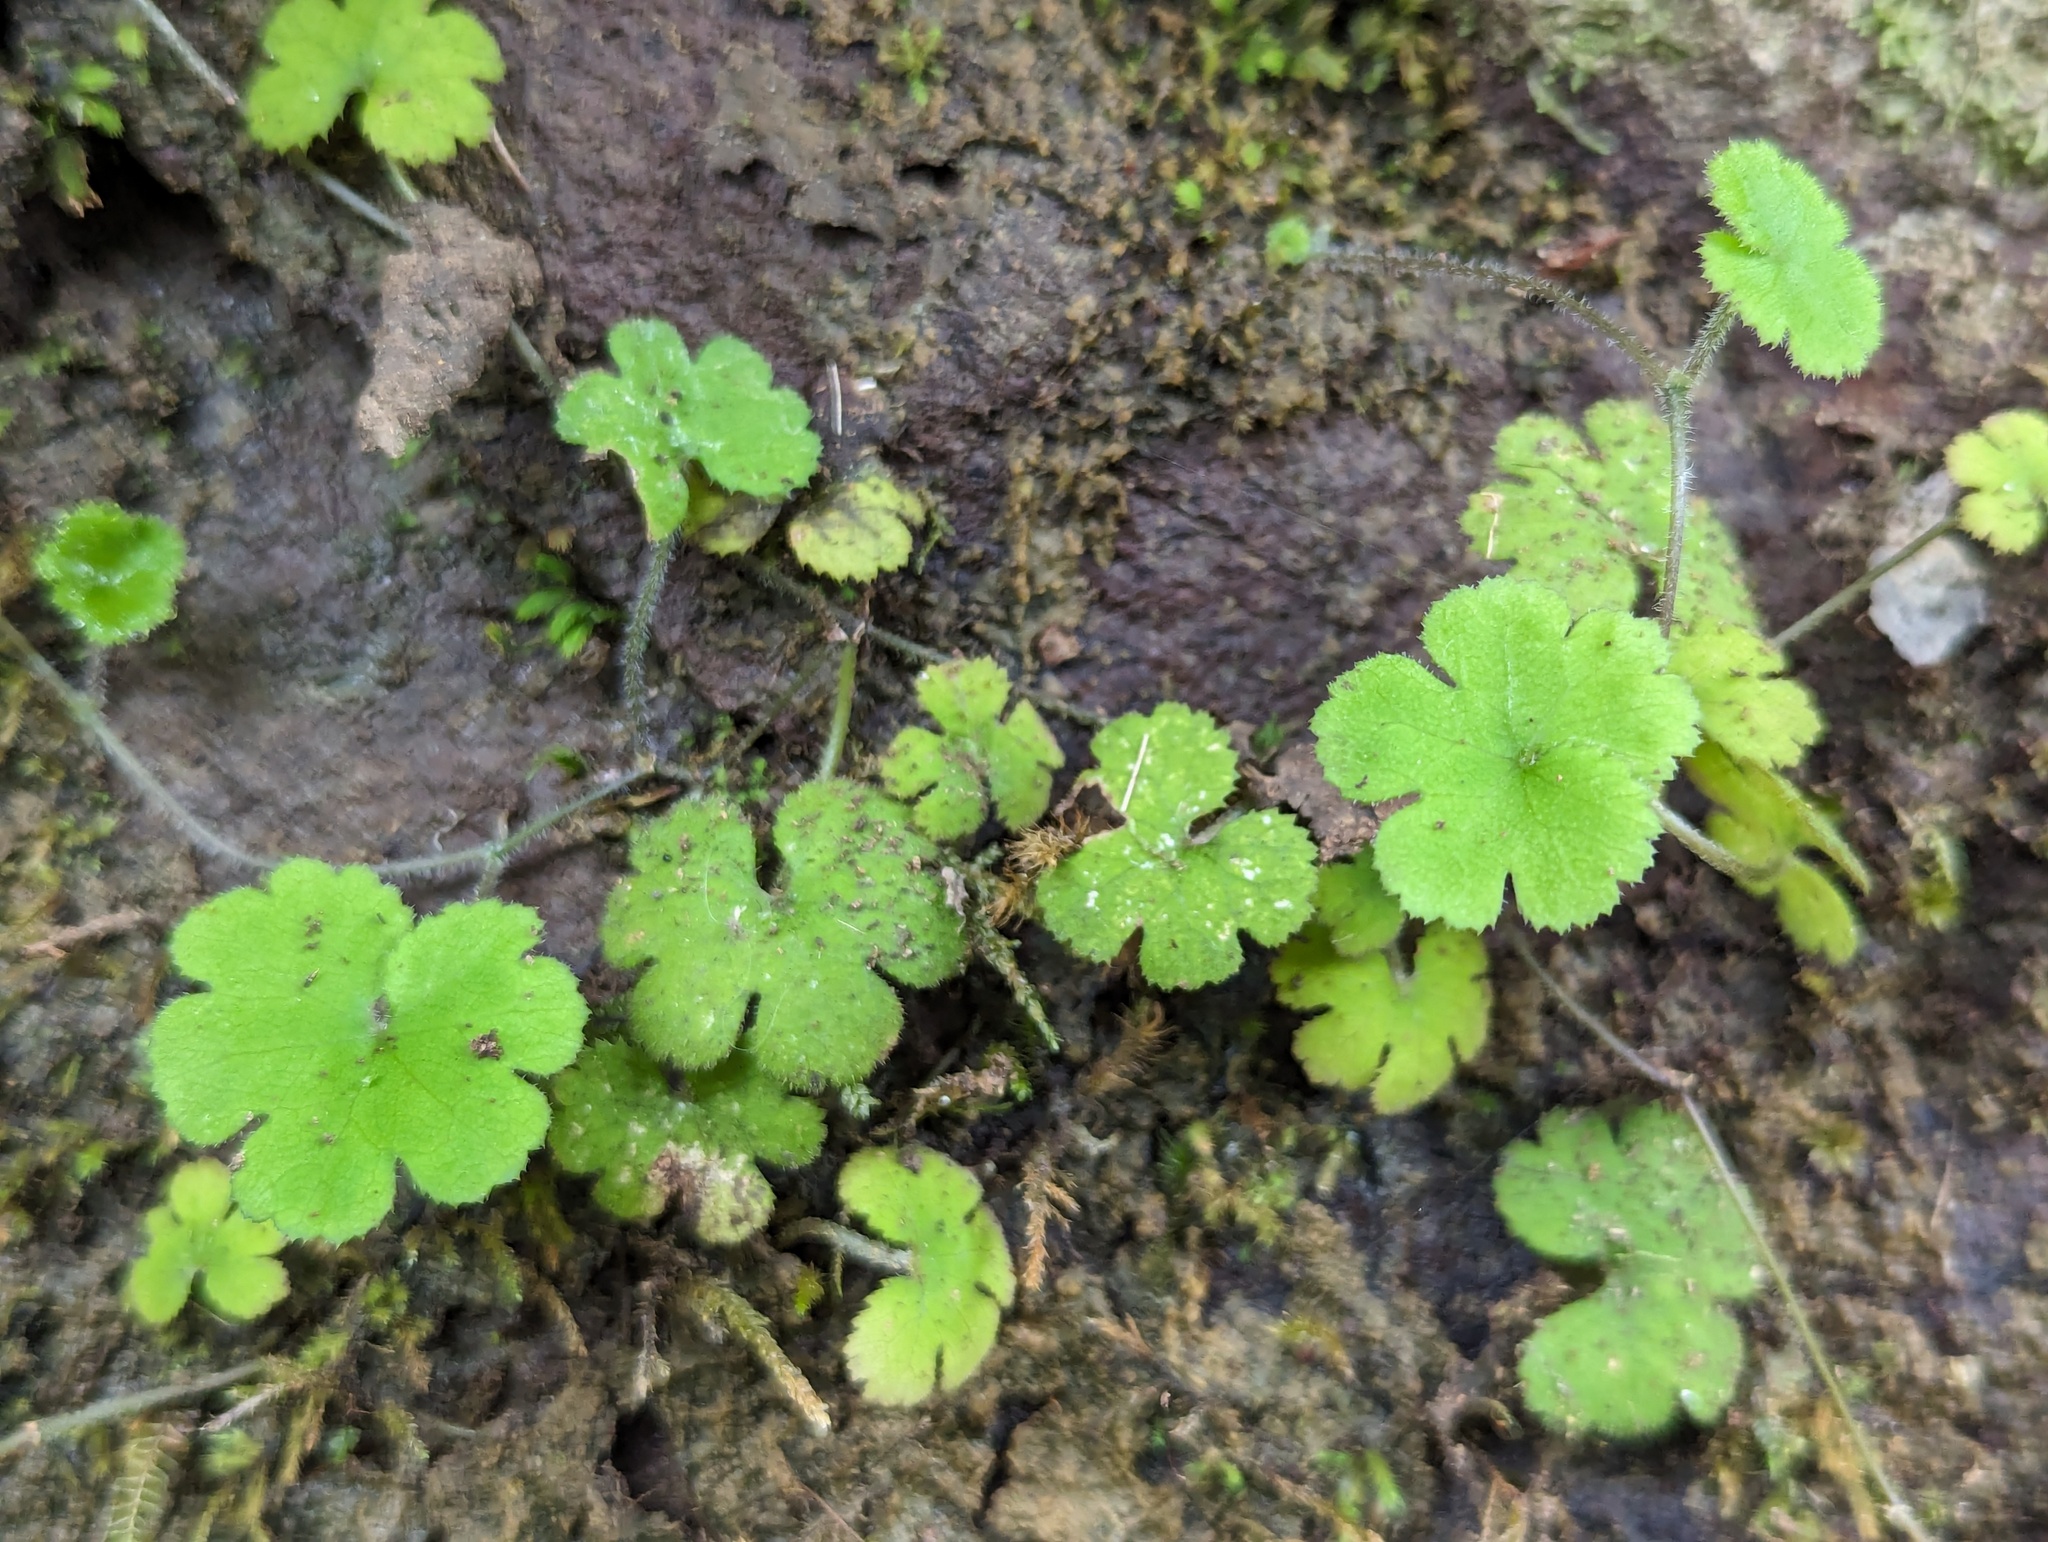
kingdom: Plantae
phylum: Tracheophyta
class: Magnoliopsida
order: Apiales
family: Araliaceae
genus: Hydrocotyle
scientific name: Hydrocotyle elongata
